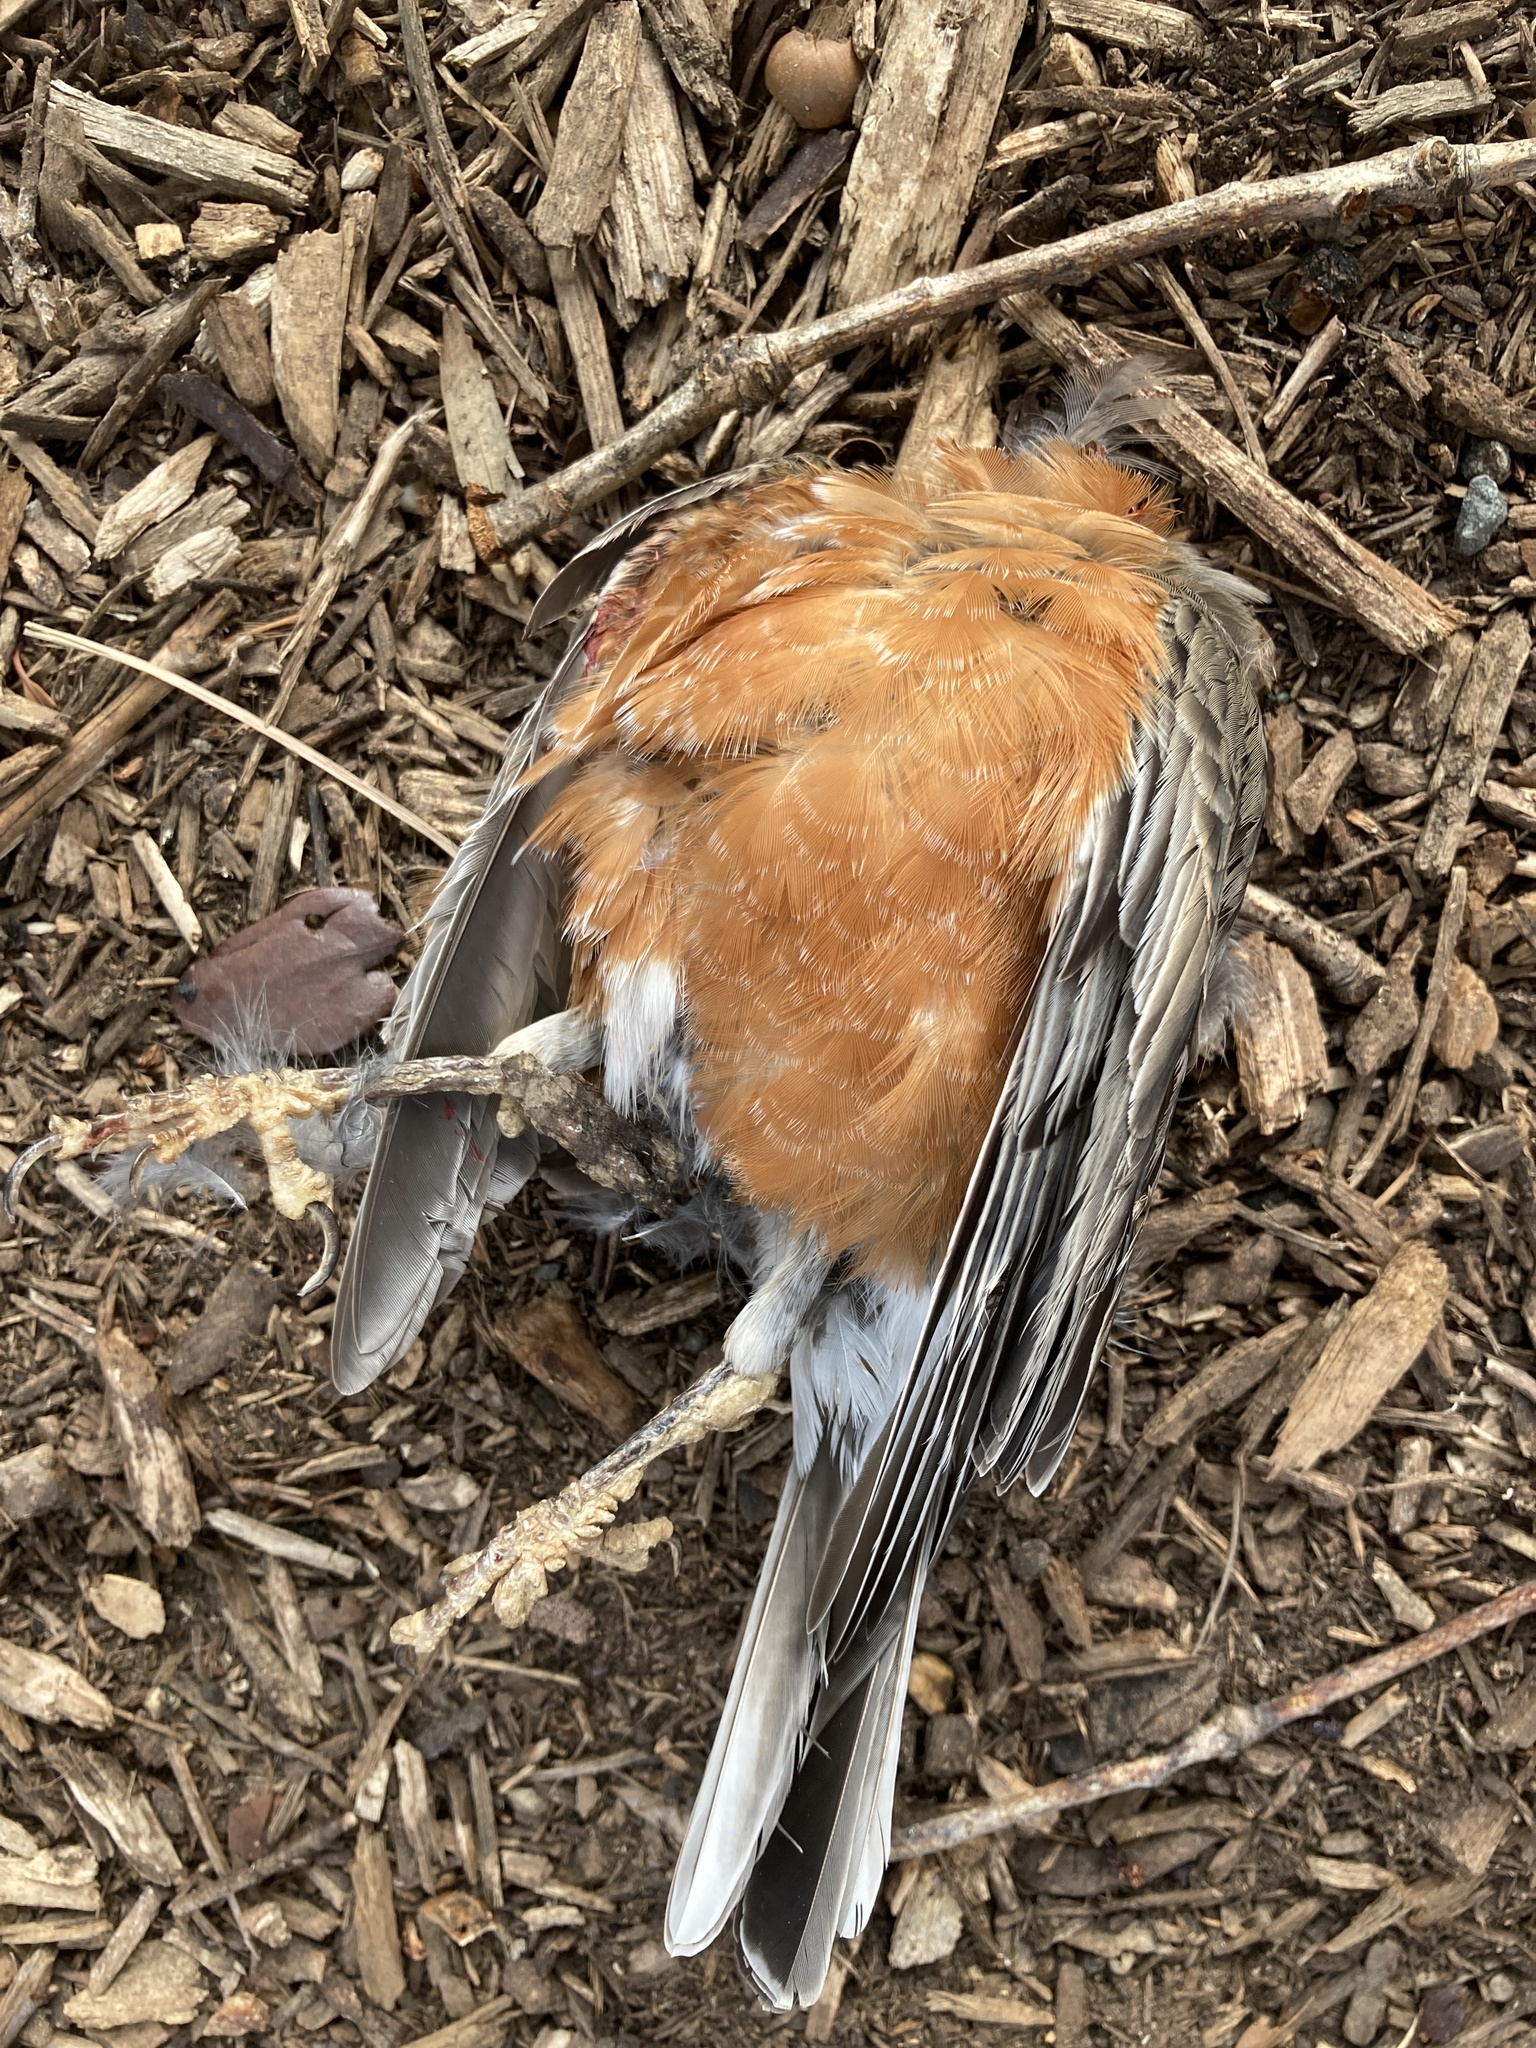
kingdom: Animalia
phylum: Chordata
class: Aves
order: Passeriformes
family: Turdidae
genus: Turdus
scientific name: Turdus migratorius
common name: American robin
